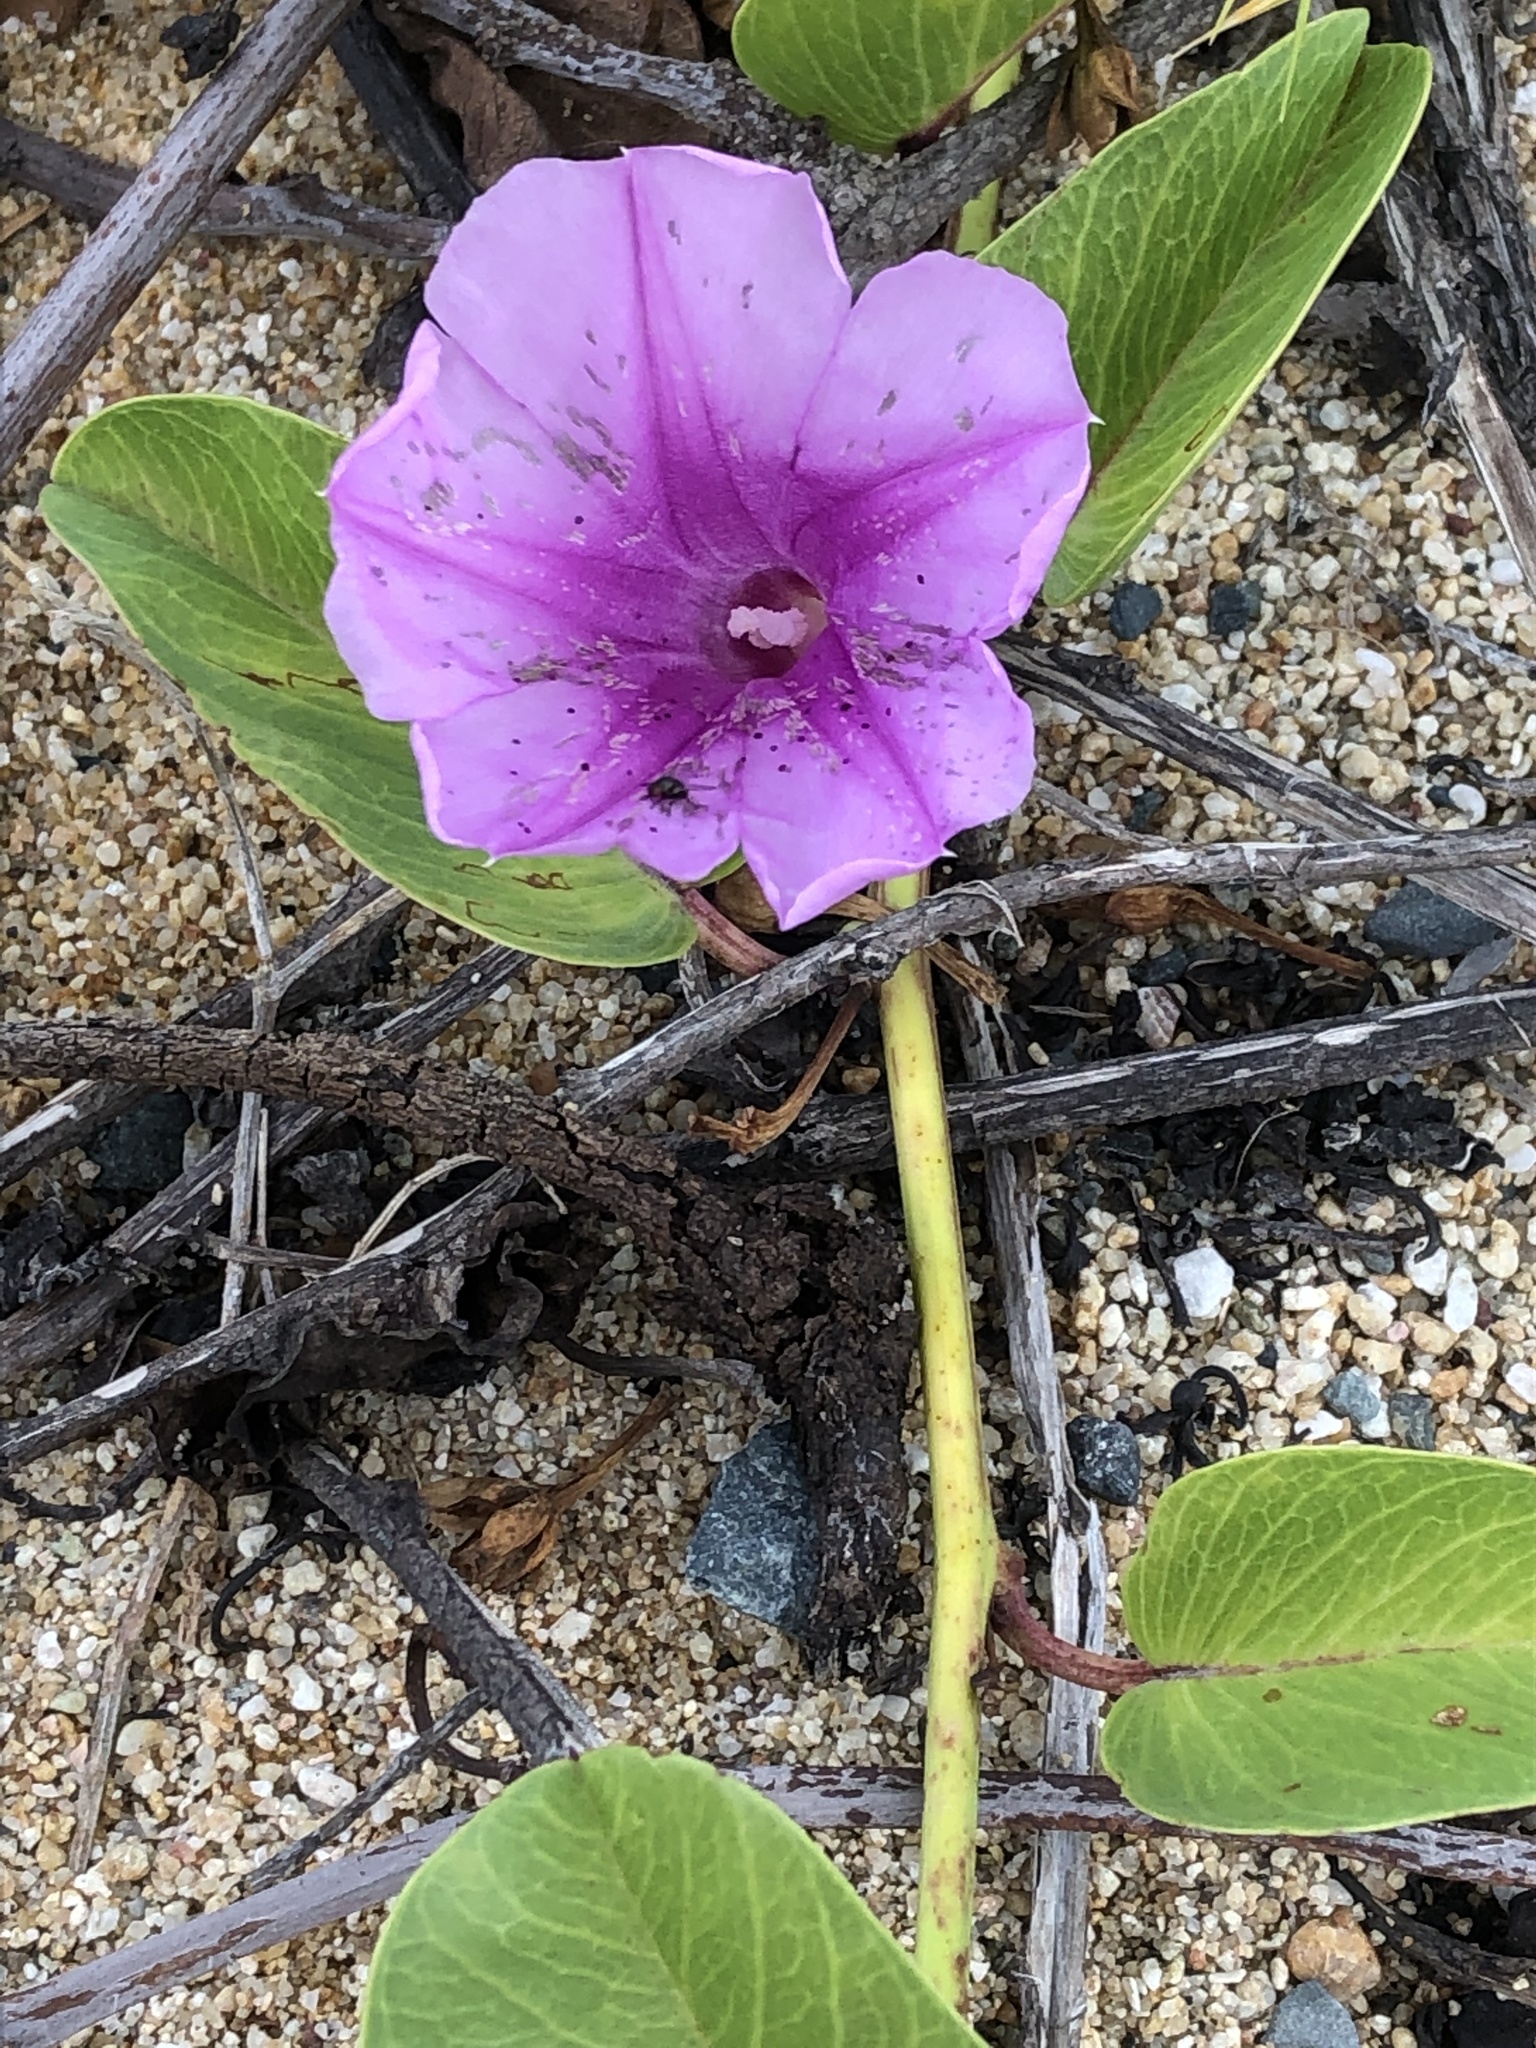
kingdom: Plantae
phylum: Tracheophyta
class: Magnoliopsida
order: Solanales
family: Convolvulaceae
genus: Ipomoea
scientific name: Ipomoea pes-caprae
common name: Beach morning glory
